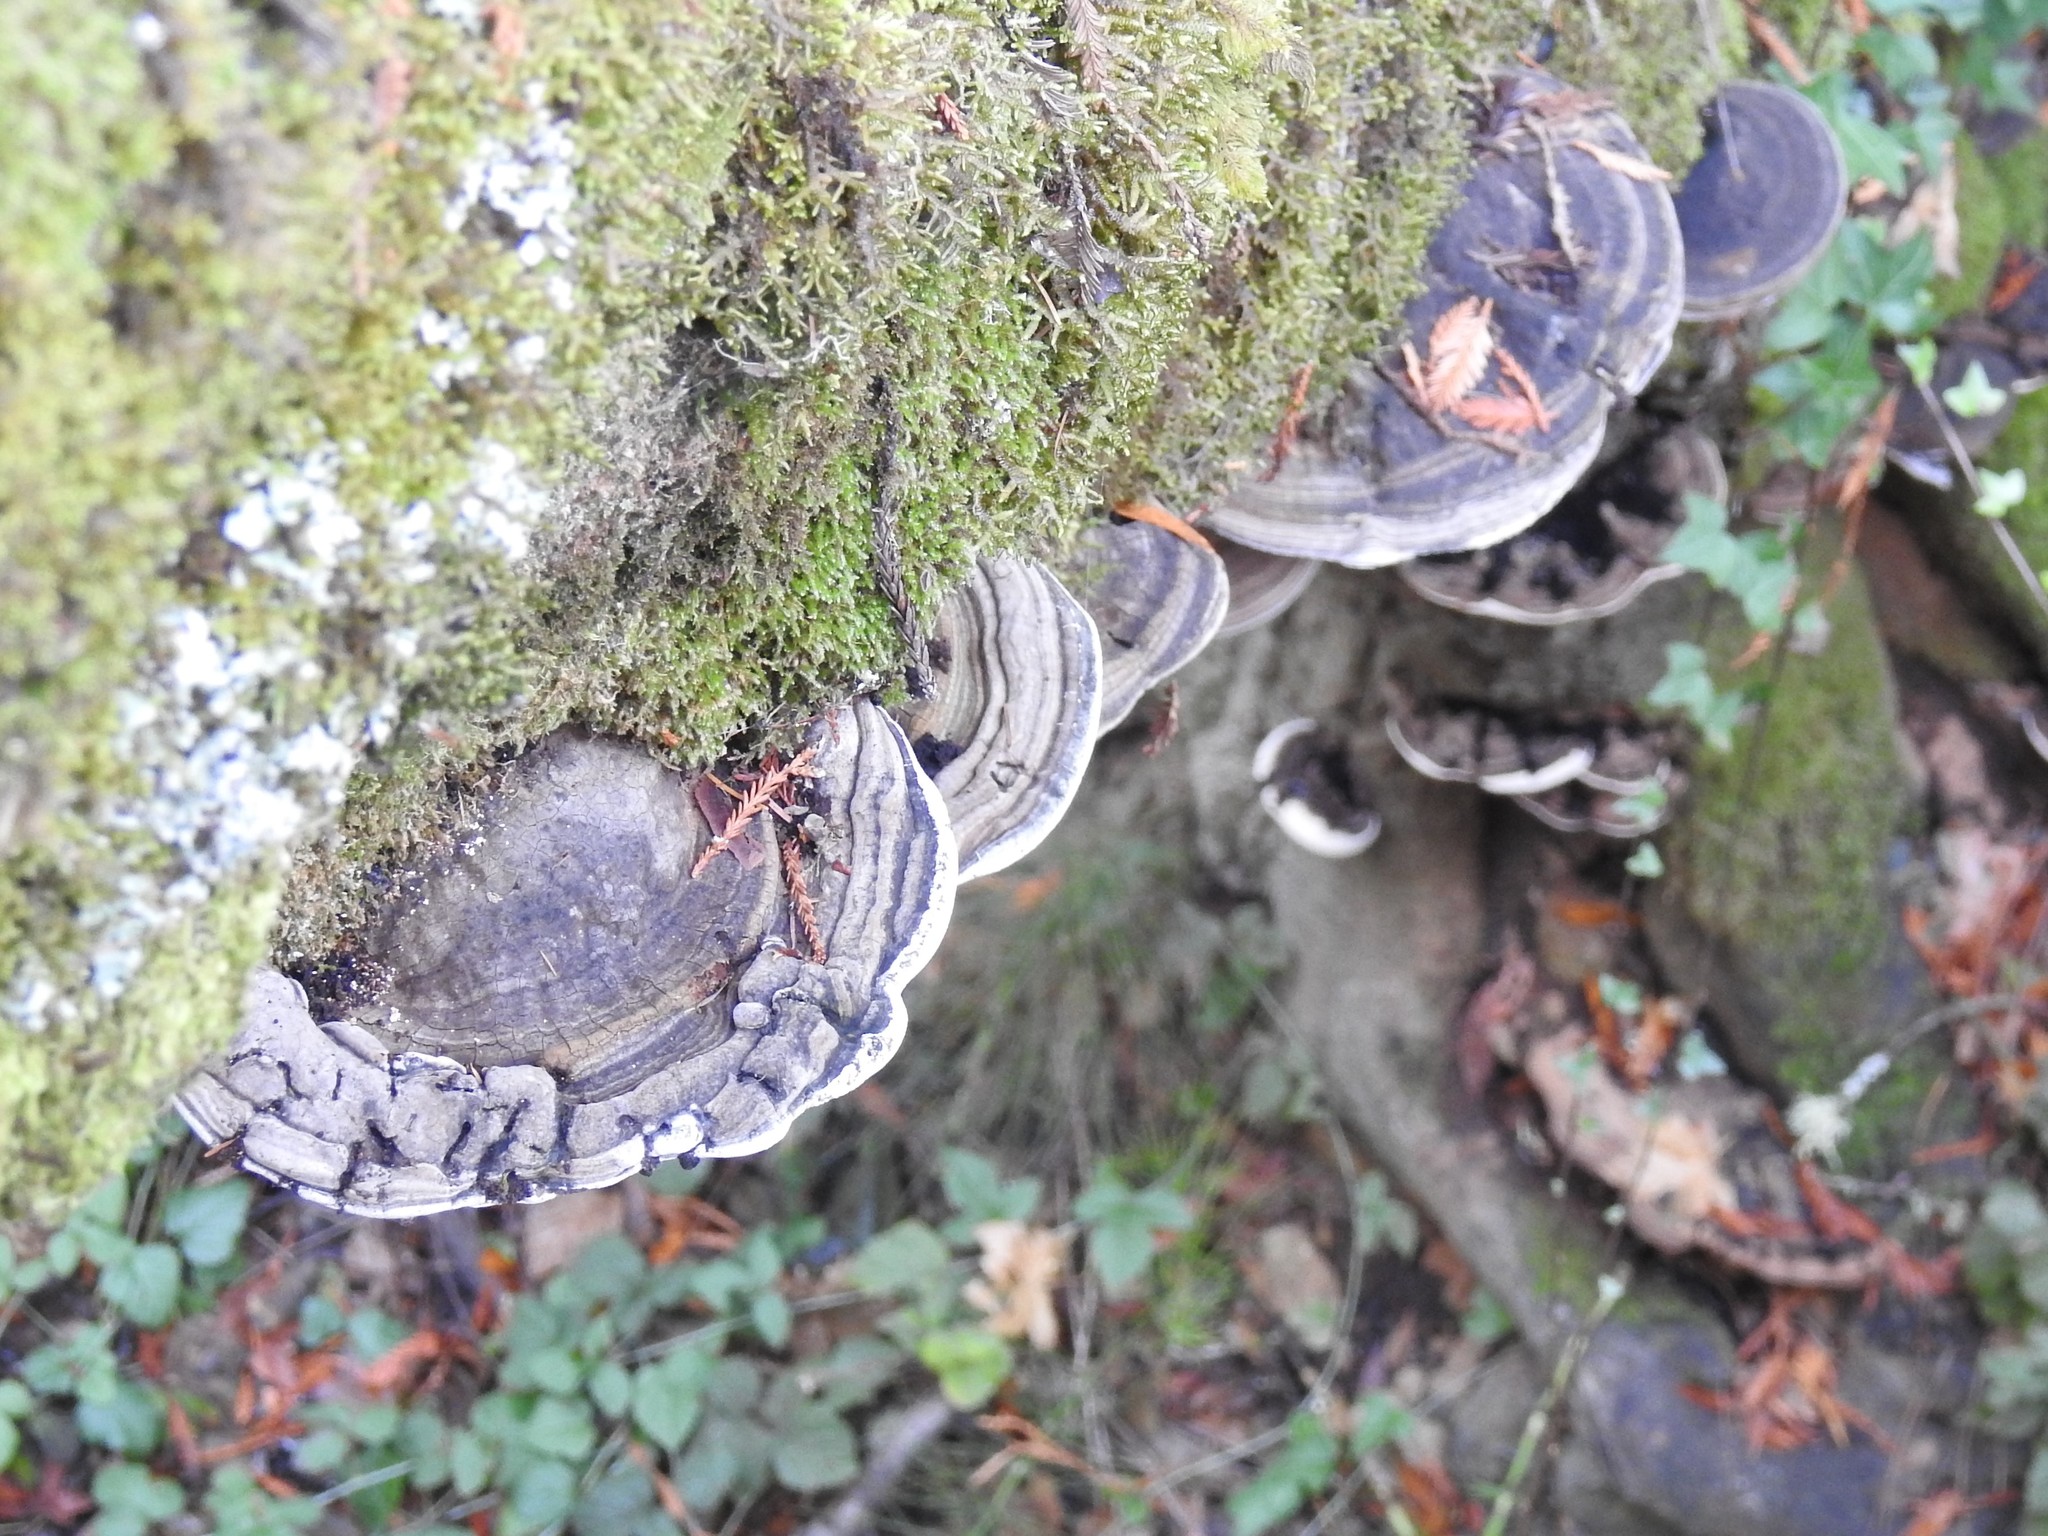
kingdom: Fungi
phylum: Basidiomycota
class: Agaricomycetes
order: Polyporales
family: Polyporaceae
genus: Ganoderma
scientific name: Ganoderma brownii
